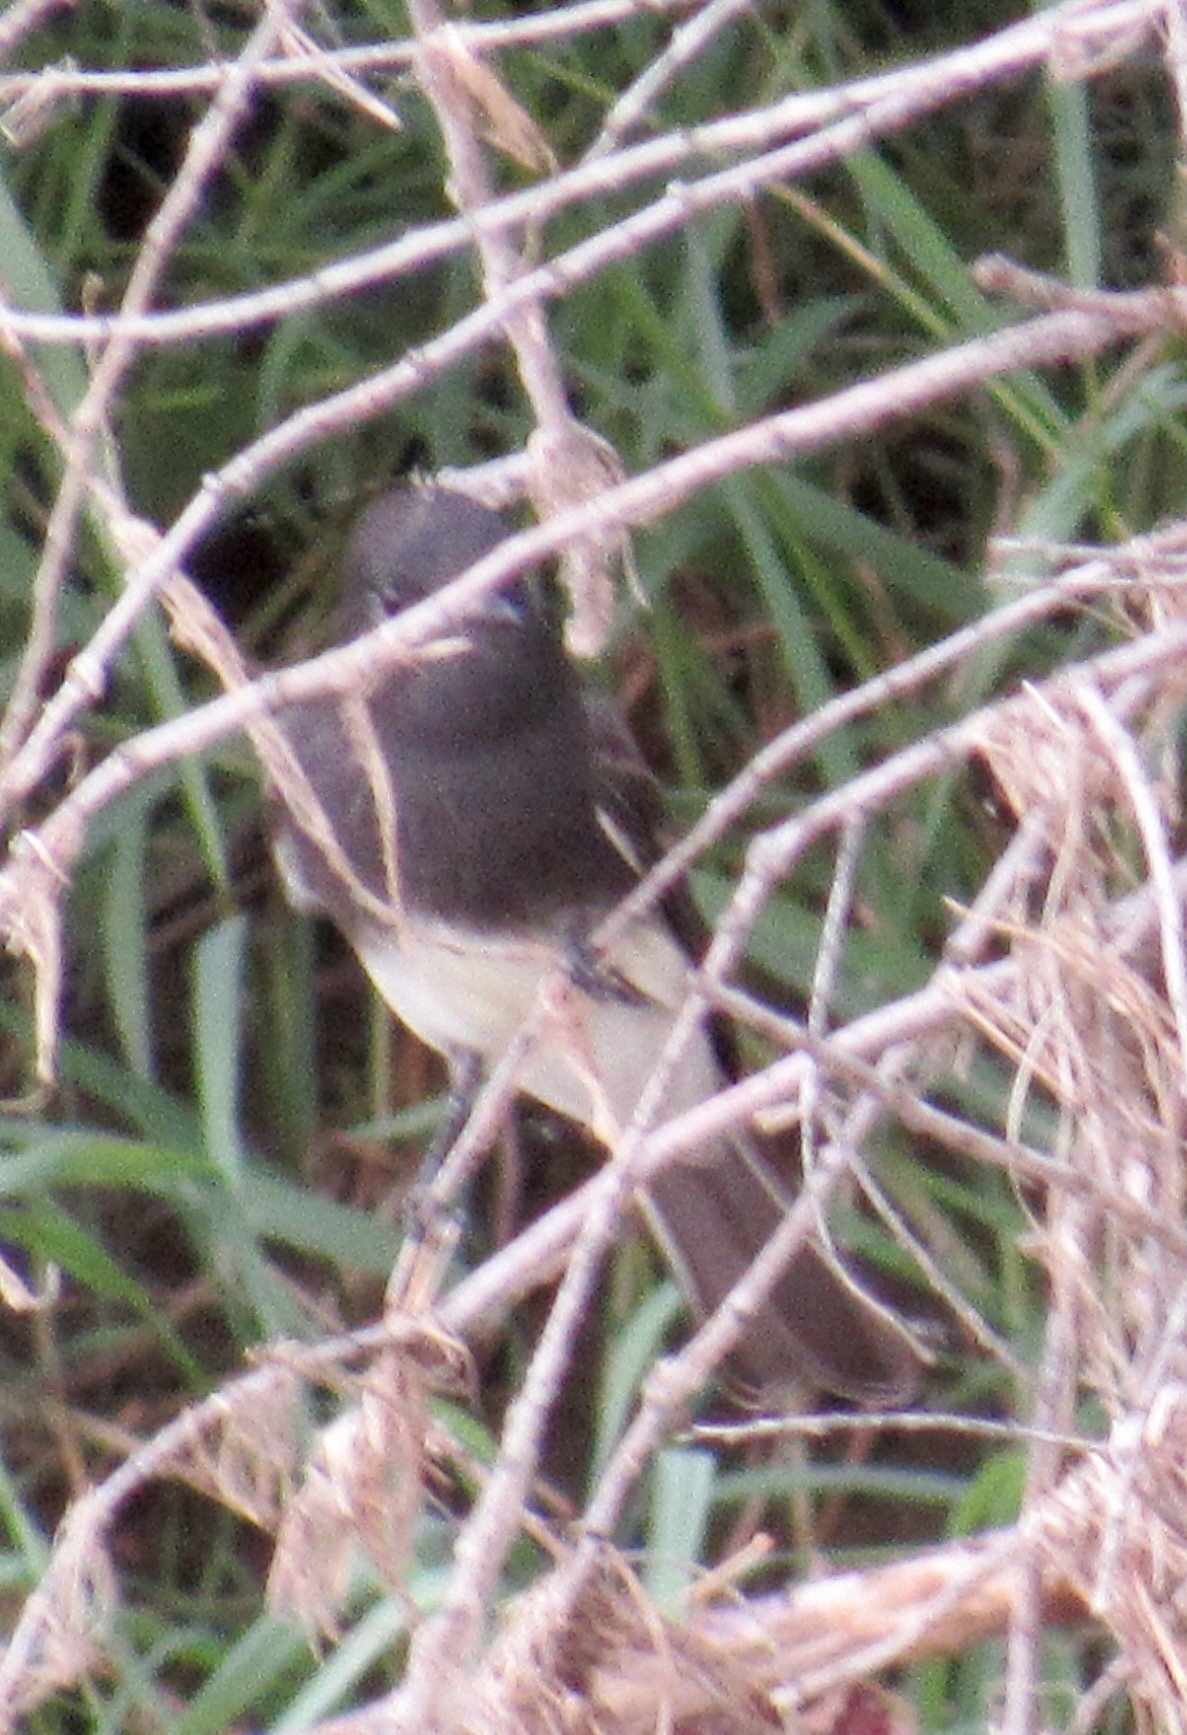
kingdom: Animalia
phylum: Chordata
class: Aves
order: Passeriformes
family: Tyrannidae
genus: Sayornis
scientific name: Sayornis nigricans
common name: Black phoebe
